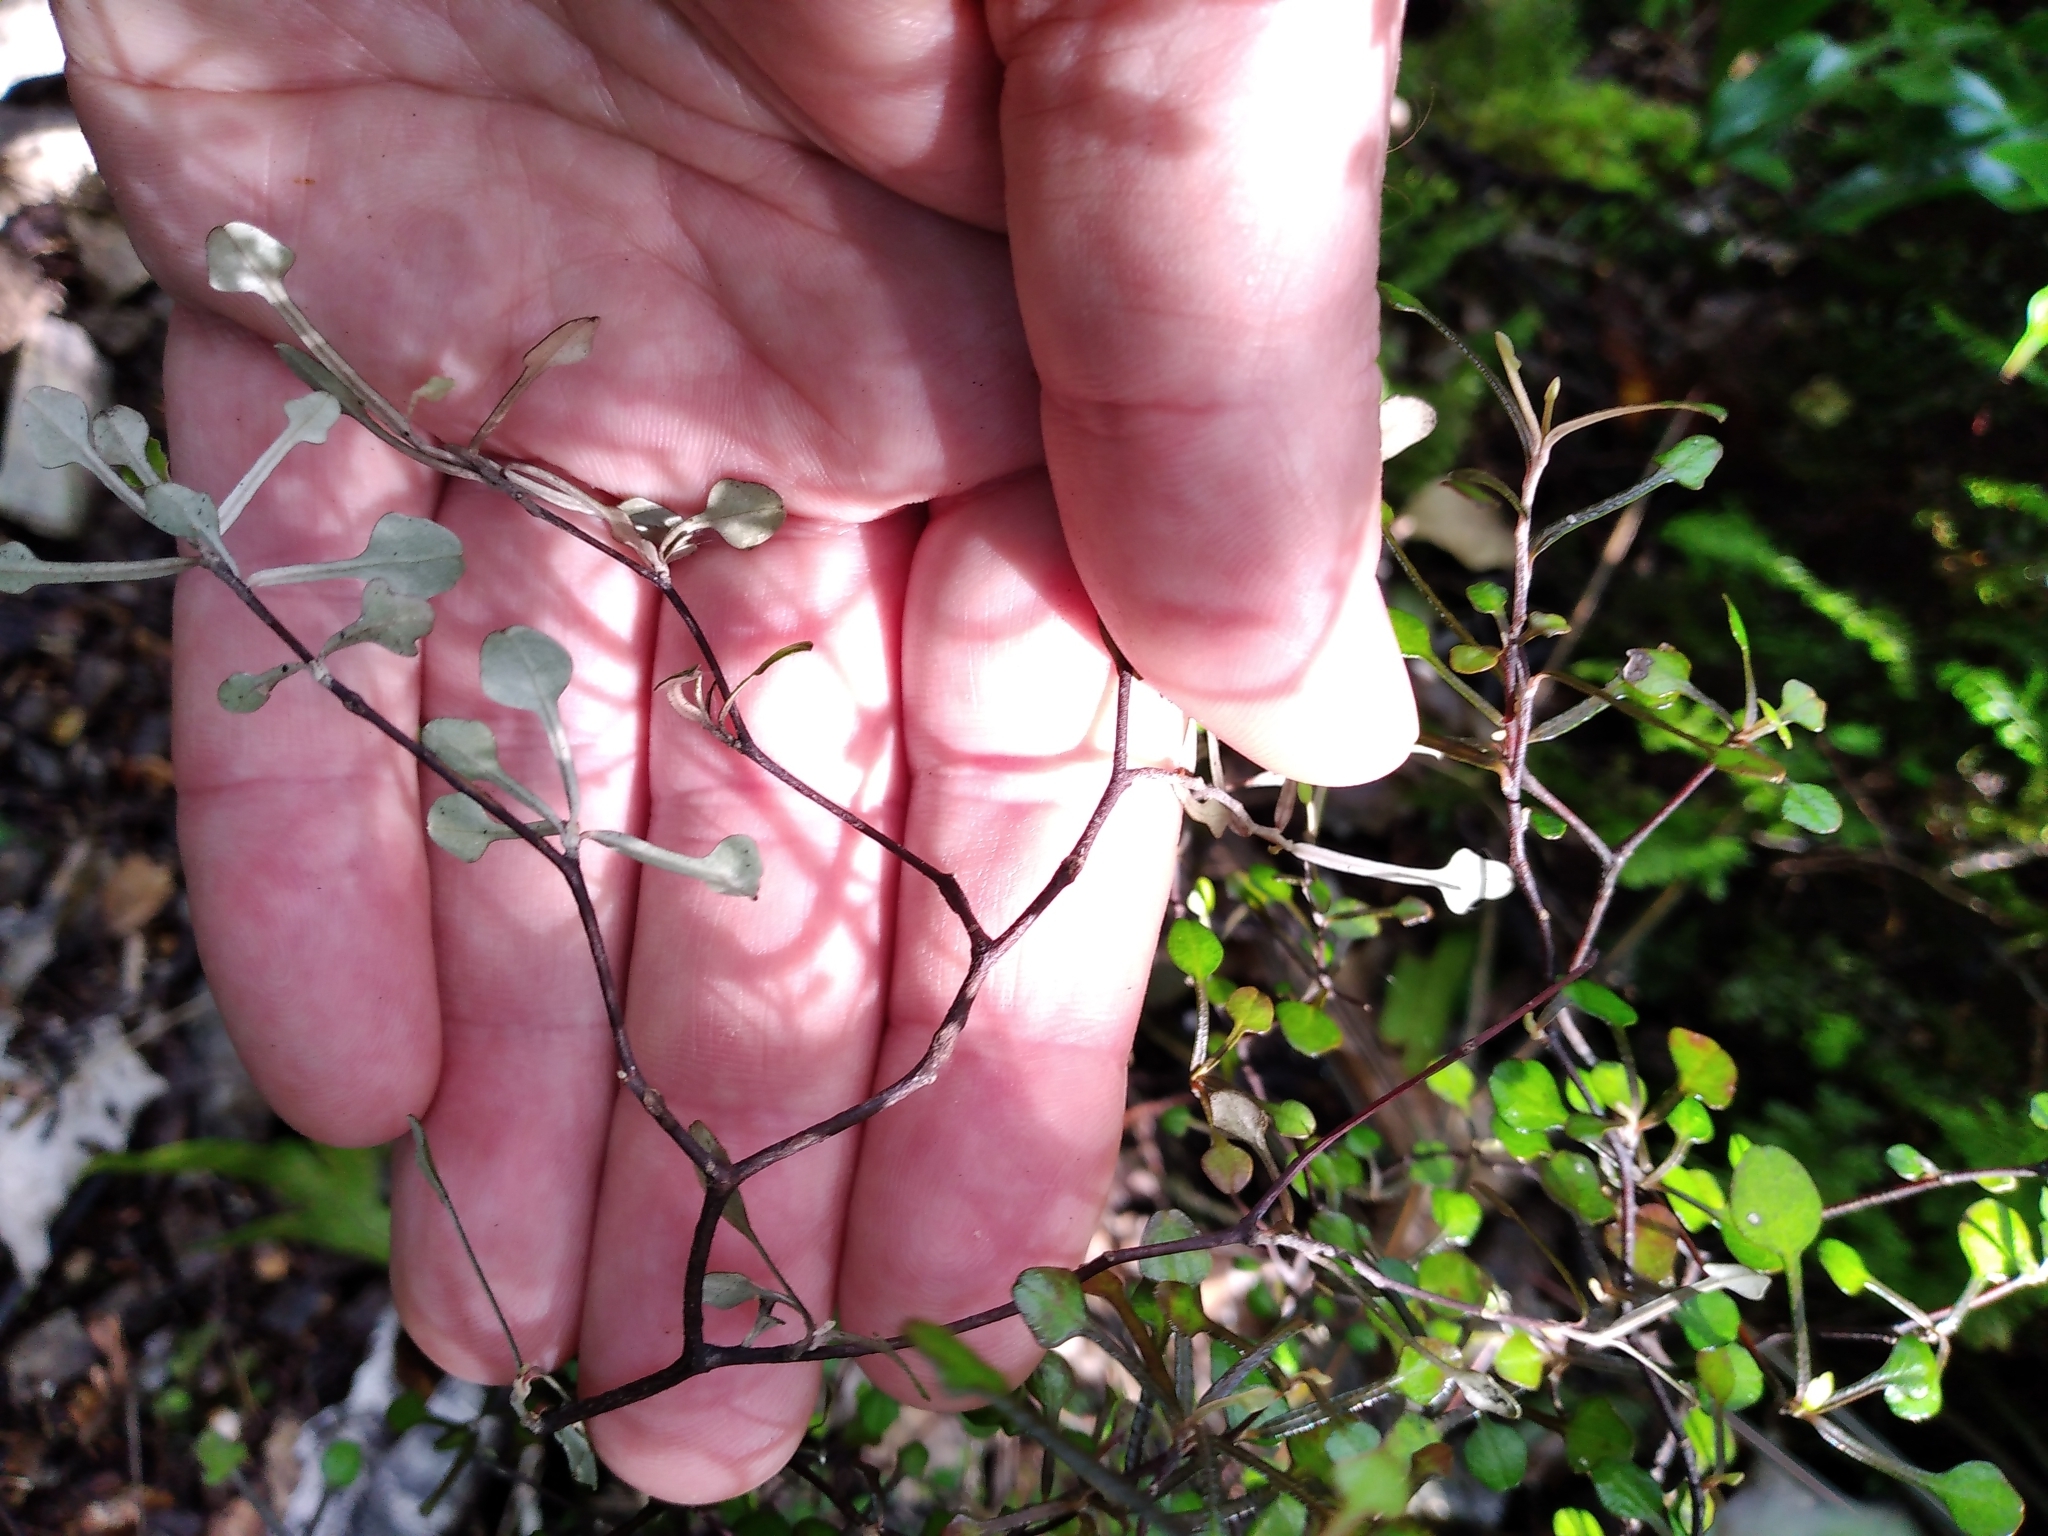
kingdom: Plantae
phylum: Tracheophyta
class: Magnoliopsida
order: Asterales
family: Argophyllaceae
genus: Corokia
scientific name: Corokia cotoneaster
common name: Wire nettingbush
